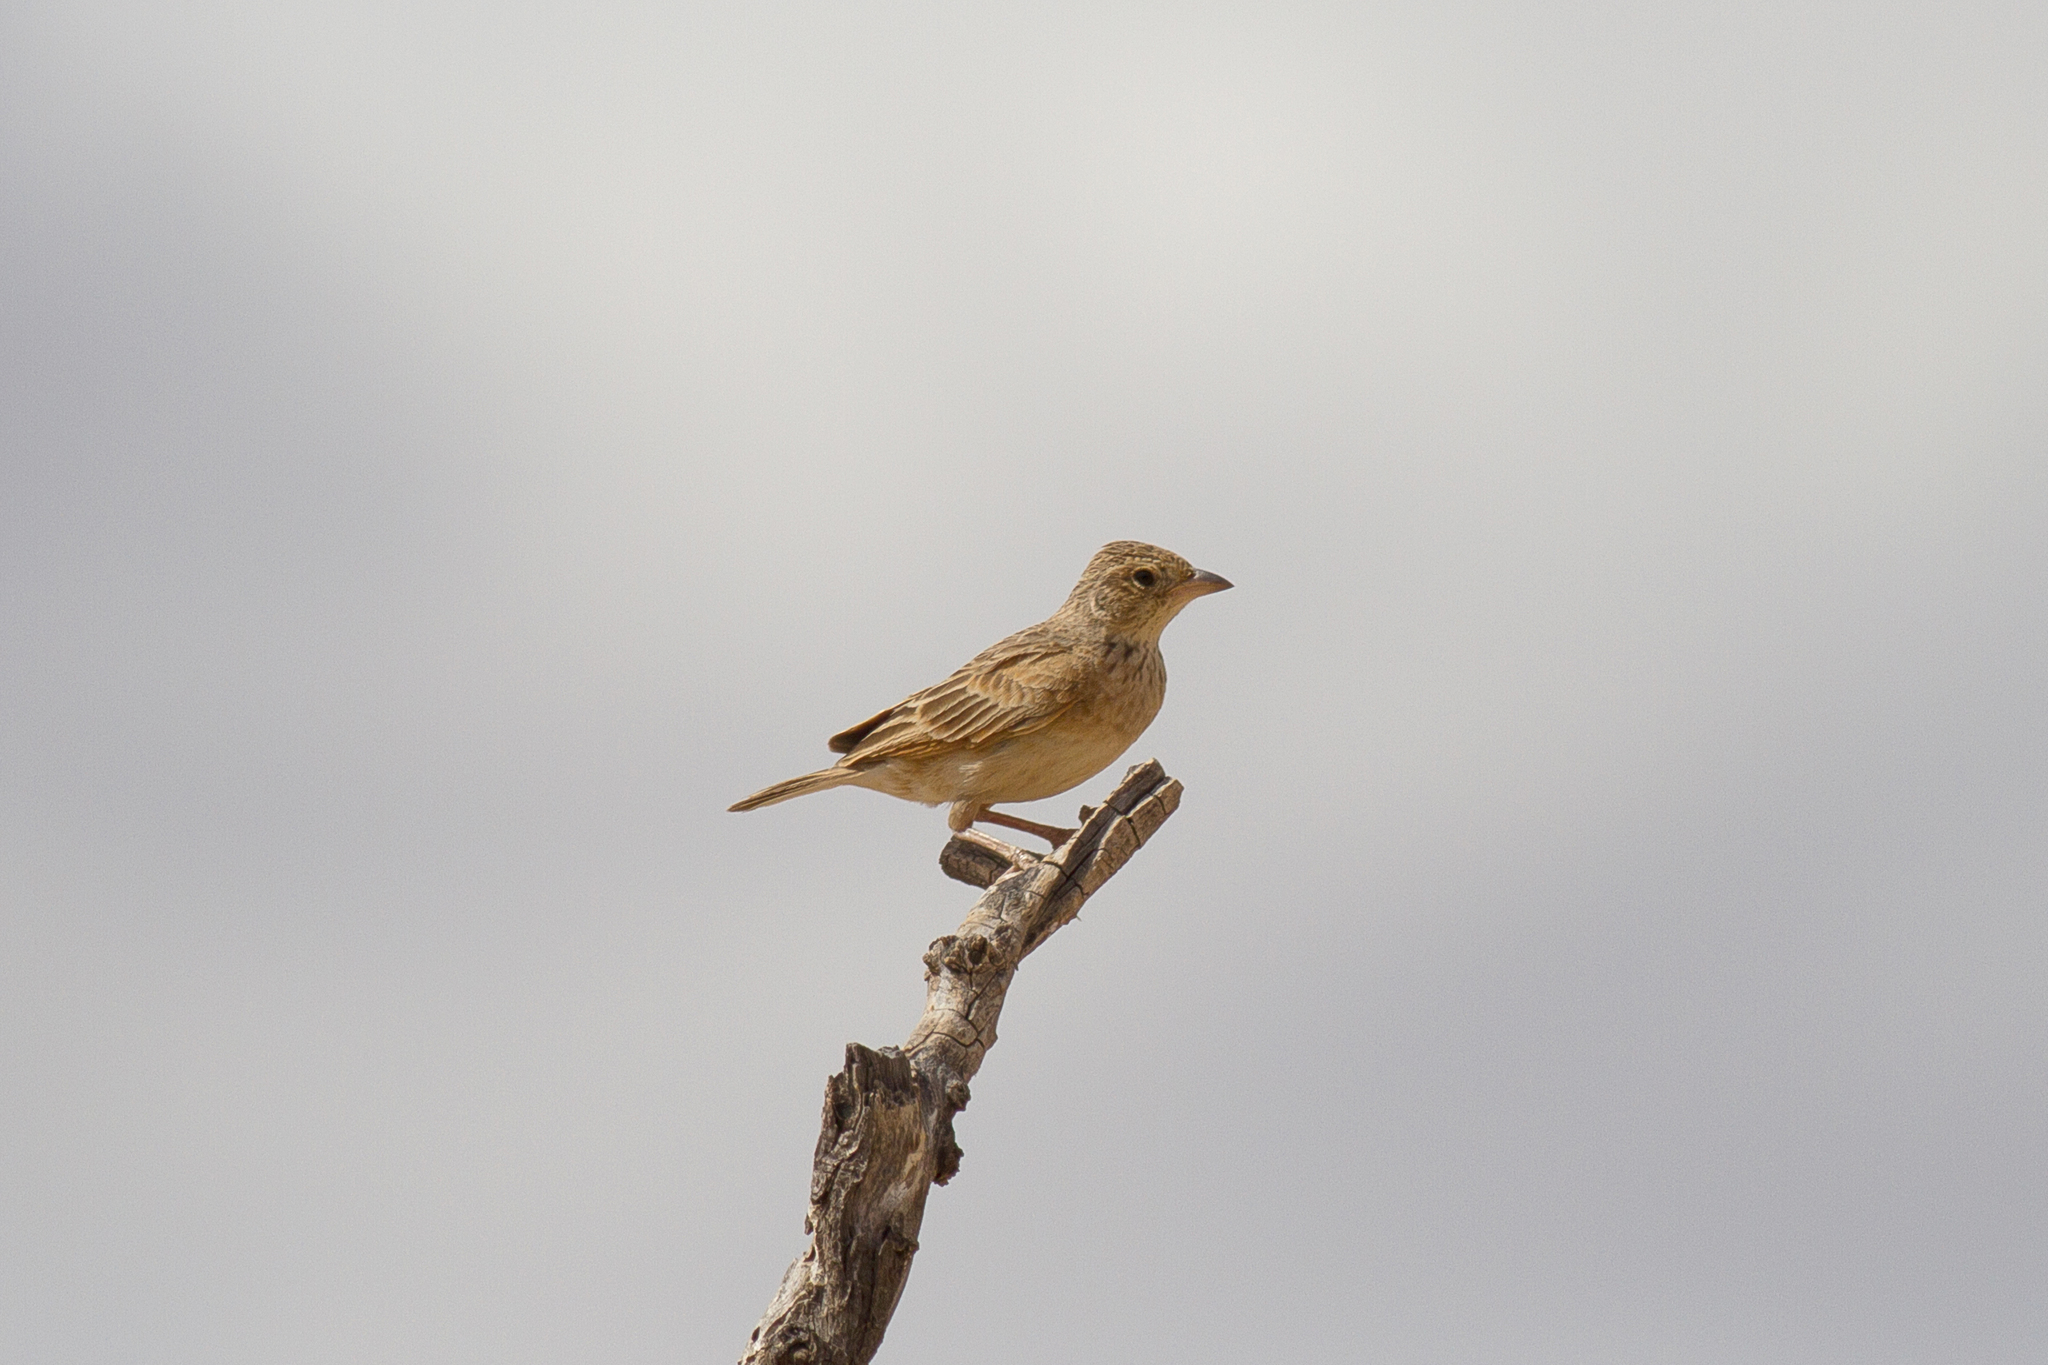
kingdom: Animalia
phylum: Chordata
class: Aves
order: Passeriformes
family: Alaudidae
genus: Mirafra
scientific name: Mirafra javanica
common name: Horsfield's bush lark
